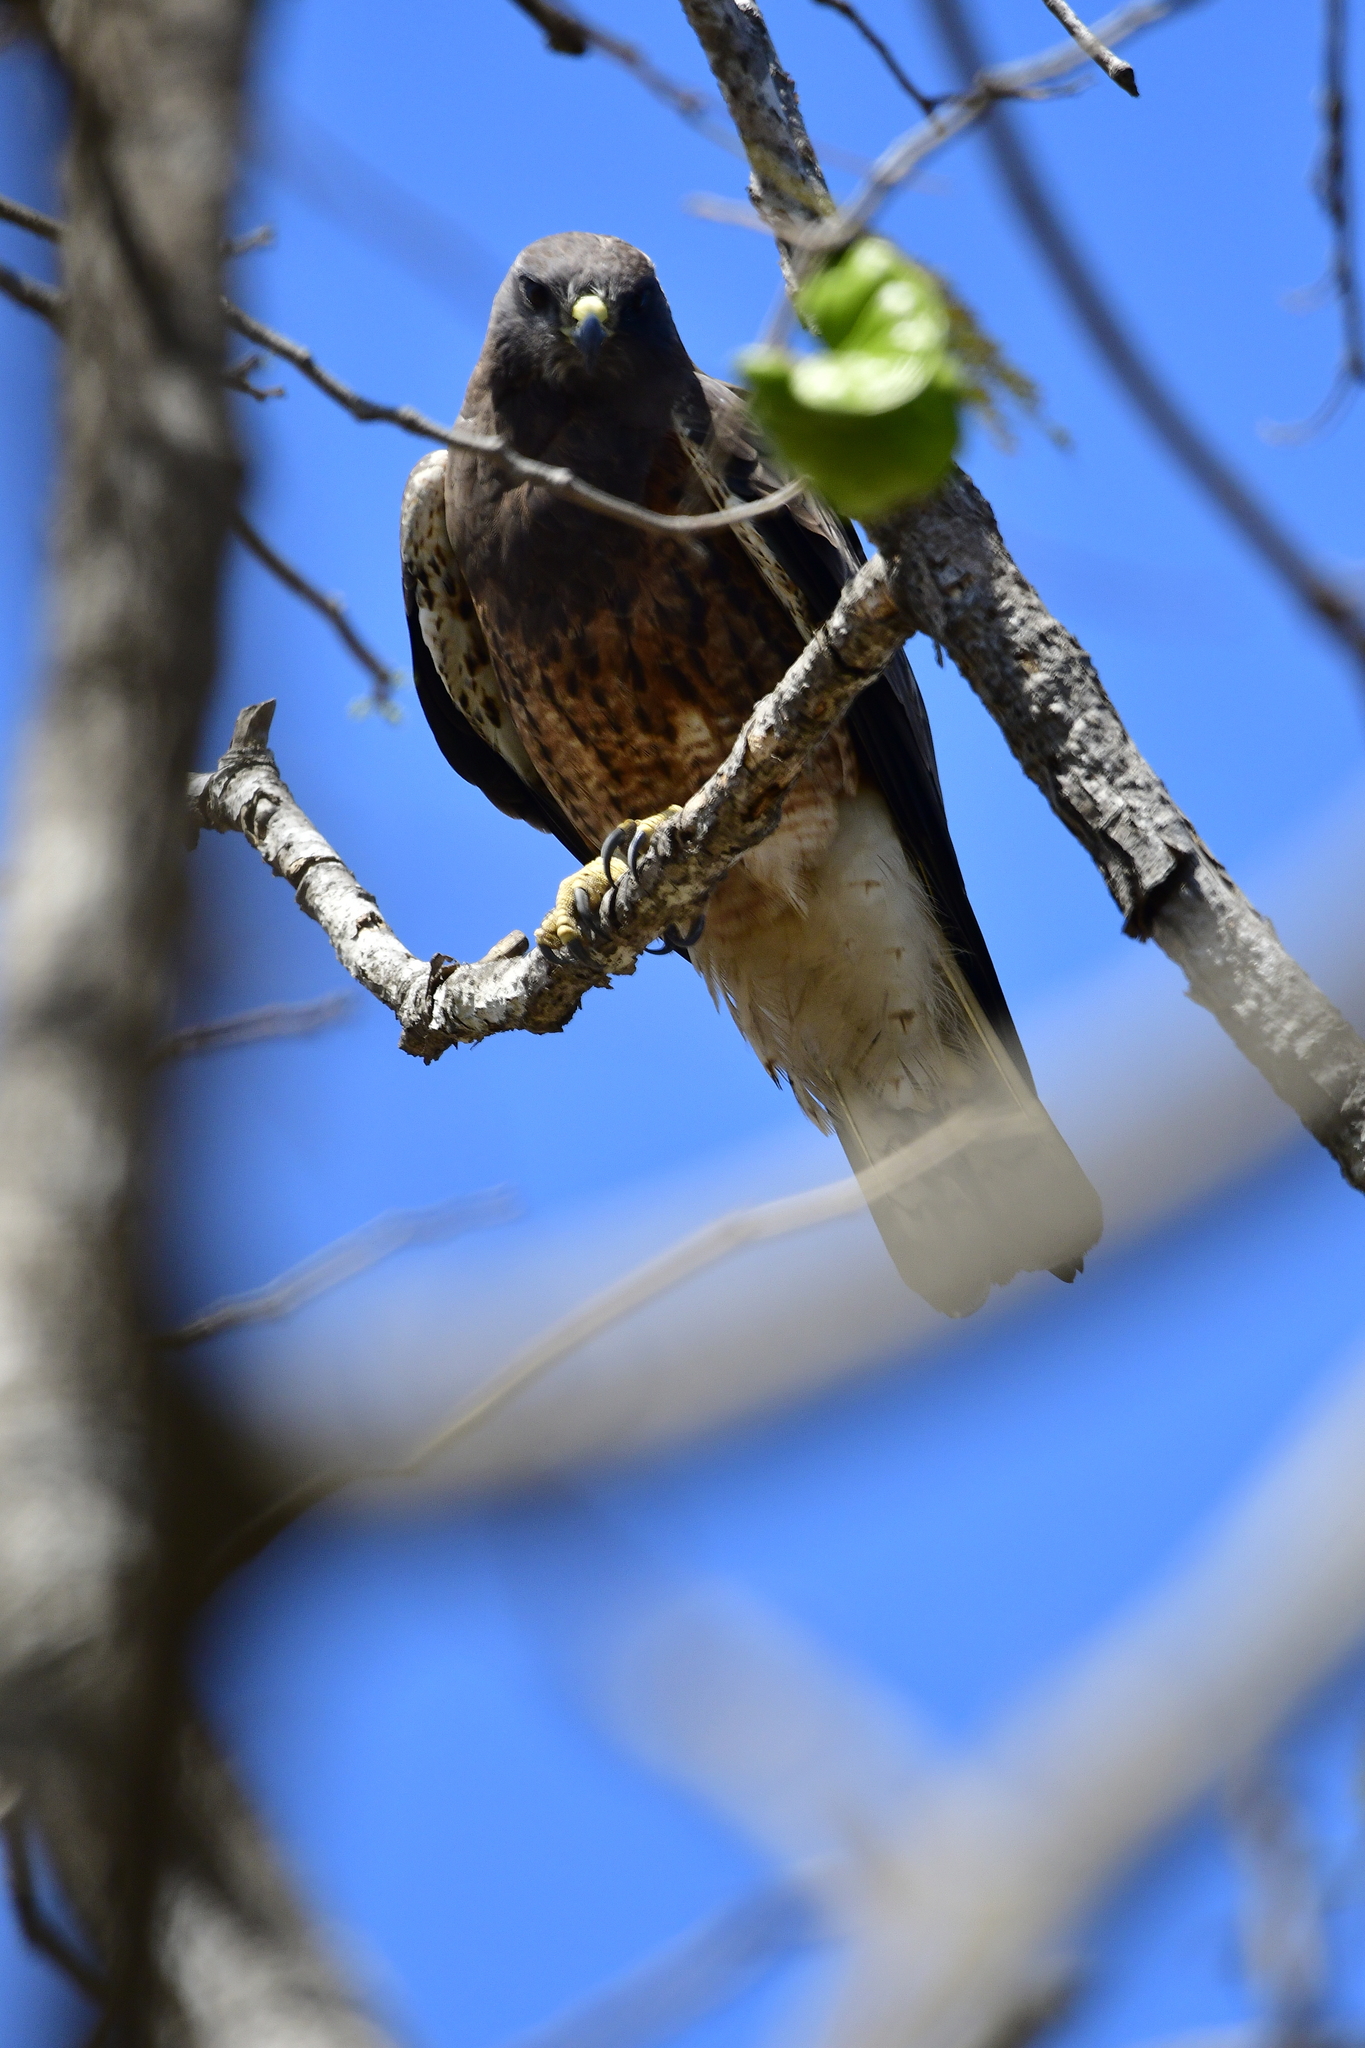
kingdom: Animalia
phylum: Chordata
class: Aves
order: Accipitriformes
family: Accipitridae
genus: Buteo
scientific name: Buteo swainsoni
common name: Swainson's hawk
